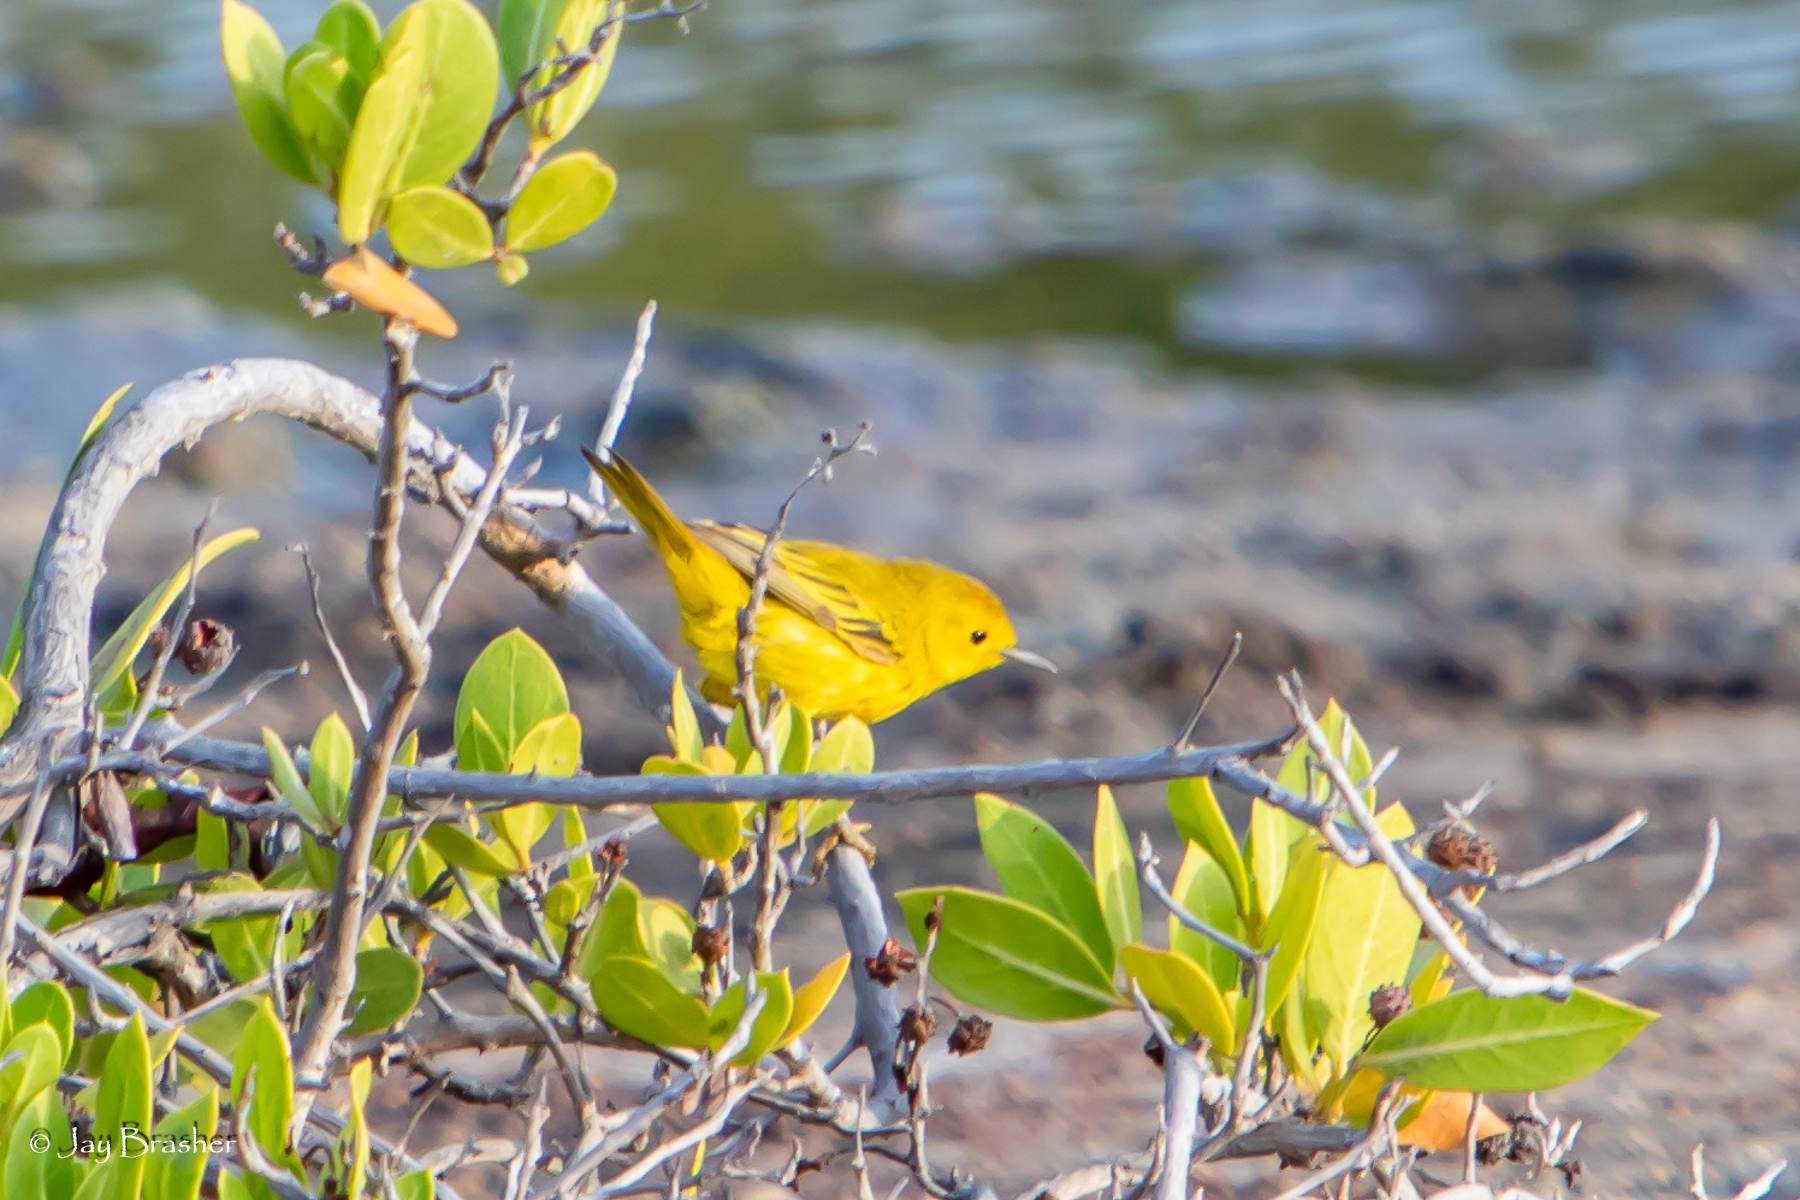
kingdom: Animalia
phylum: Chordata
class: Aves
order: Passeriformes
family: Parulidae
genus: Setophaga
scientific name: Setophaga petechia
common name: Yellow warbler
